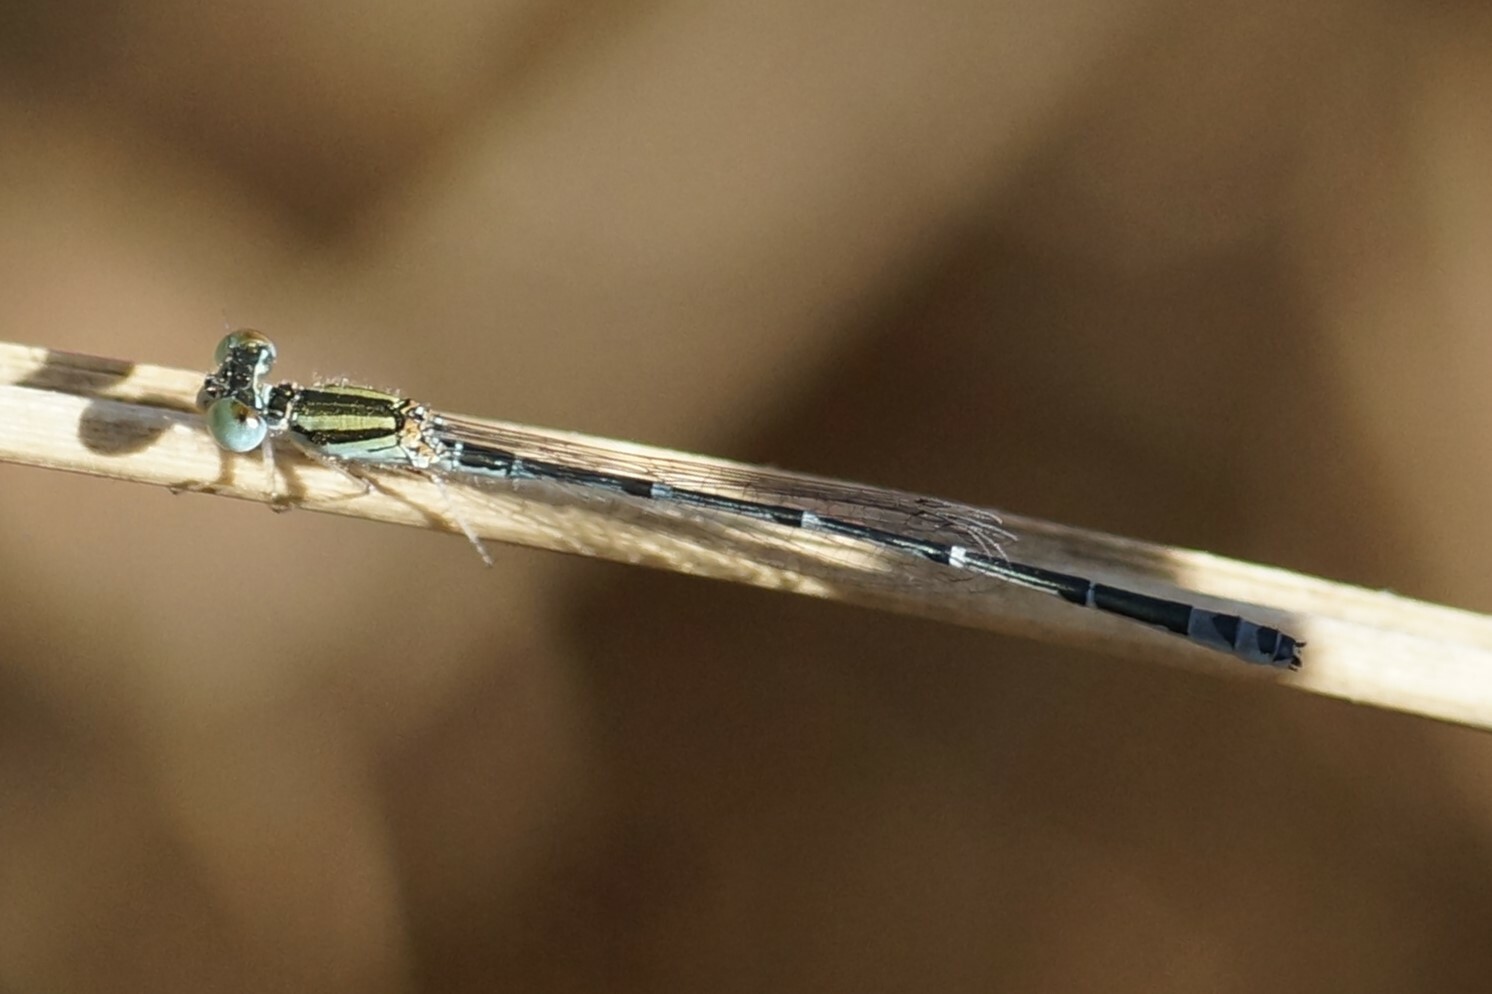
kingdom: Animalia
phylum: Arthropoda
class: Insecta
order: Odonata
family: Coenagrionidae
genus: Austroagrion
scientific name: Austroagrion exclamationis
